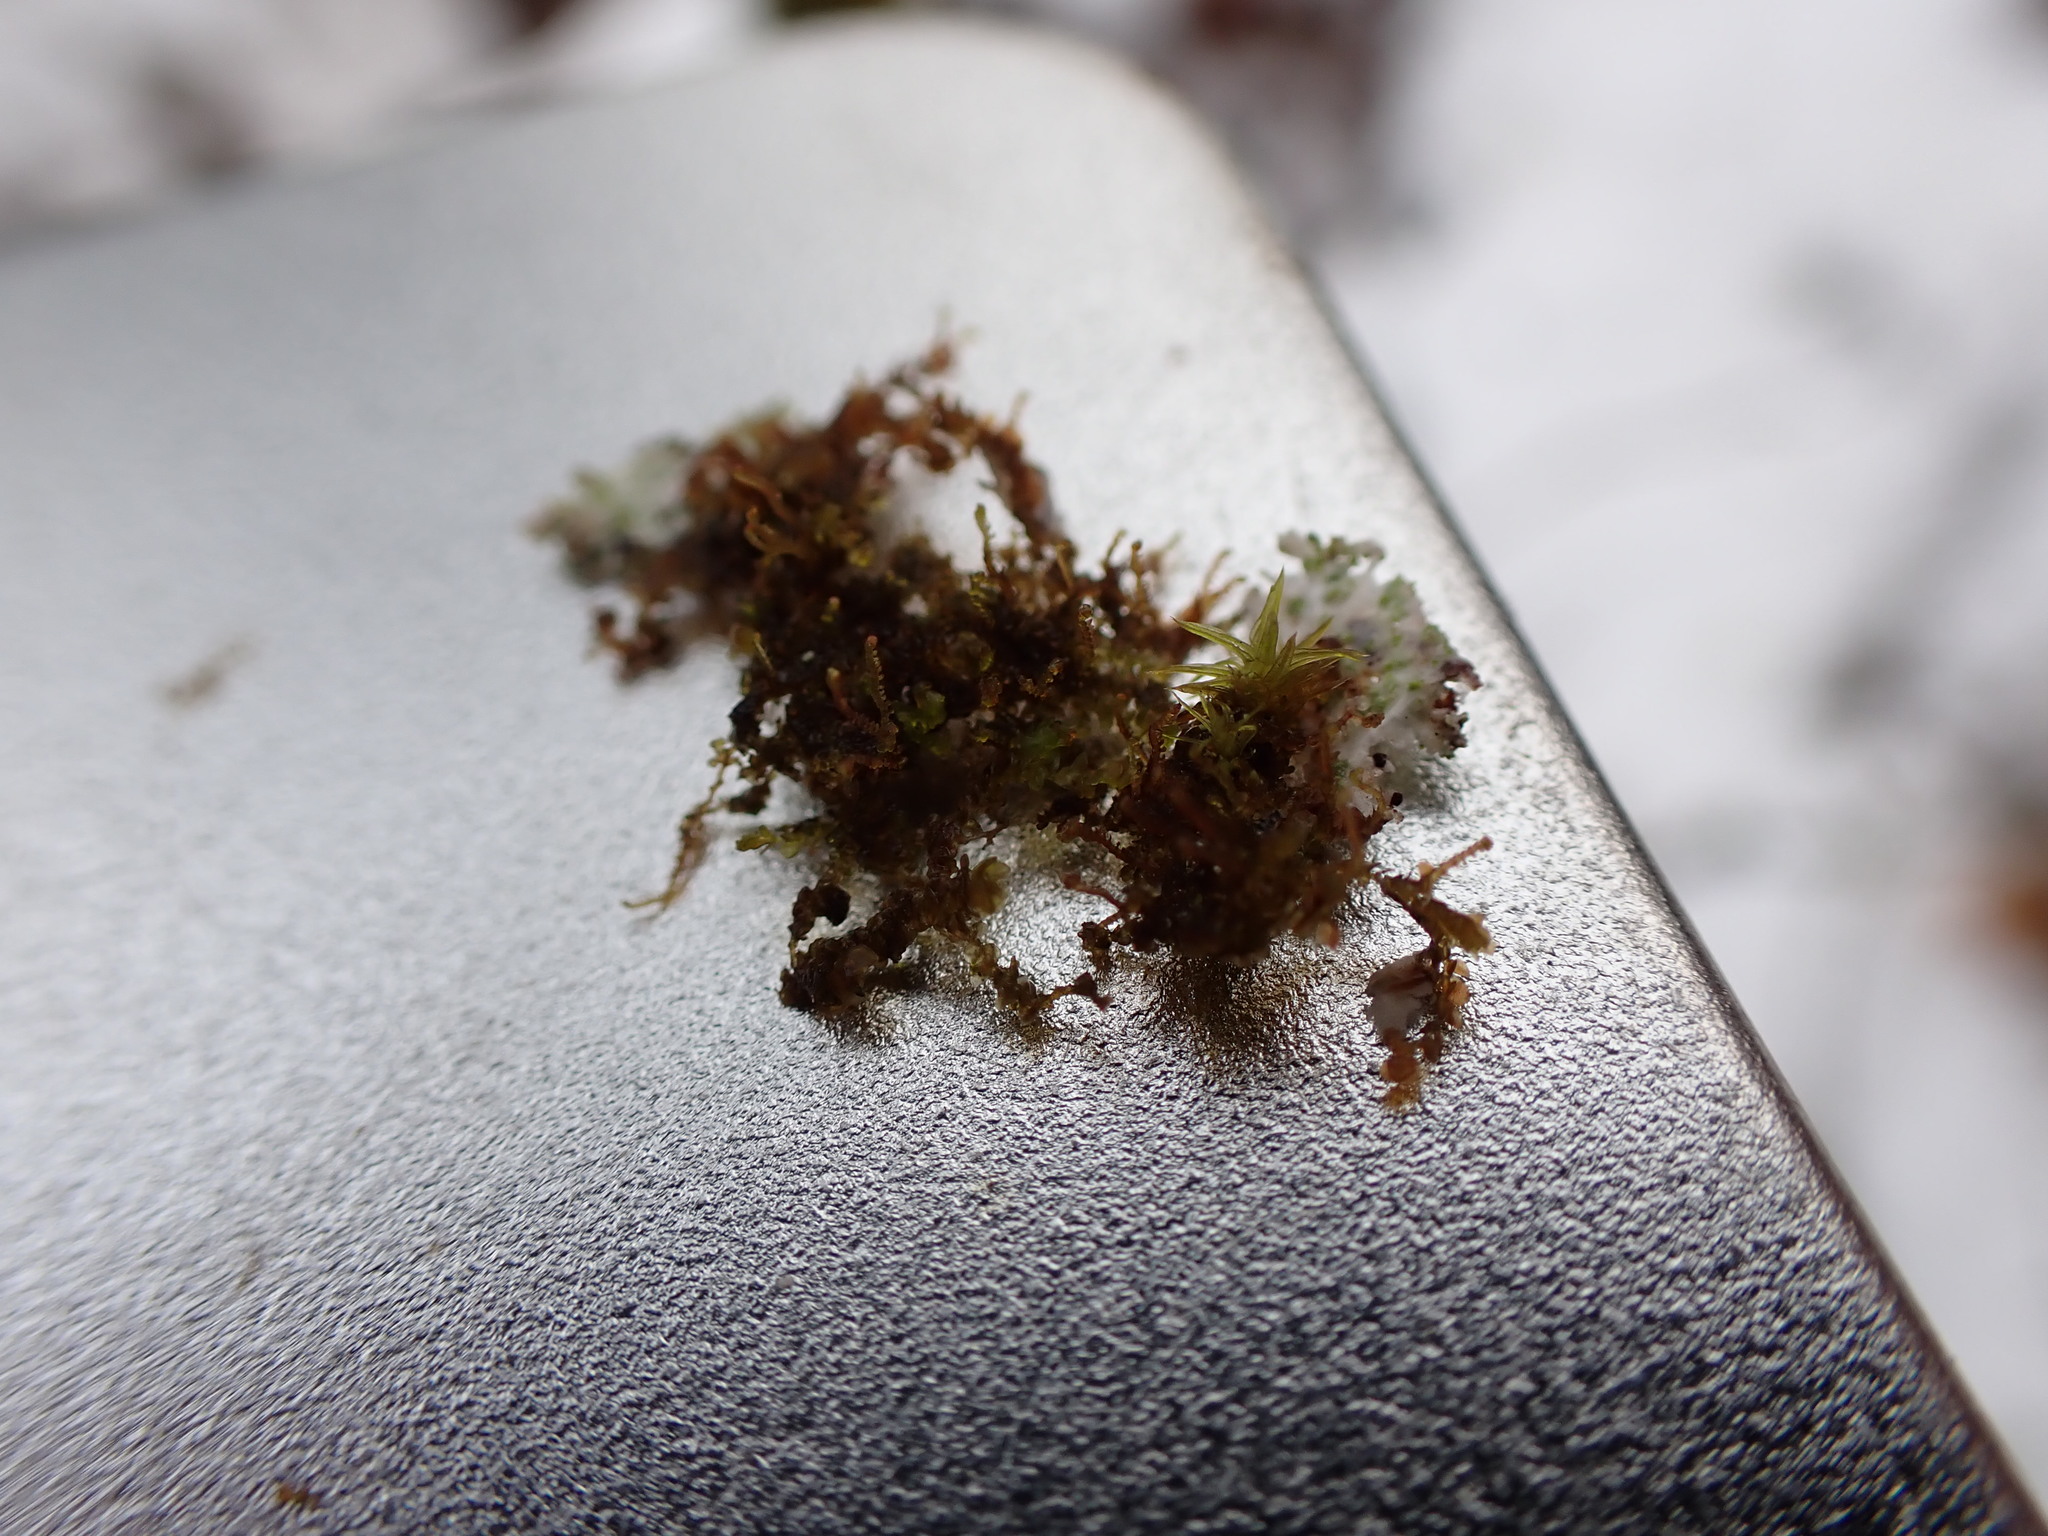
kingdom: Plantae
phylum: Marchantiophyta
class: Jungermanniopsida
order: Porellales
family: Frullaniaceae
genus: Frullania
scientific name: Frullania bolanderi
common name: Bolander s scalewort
